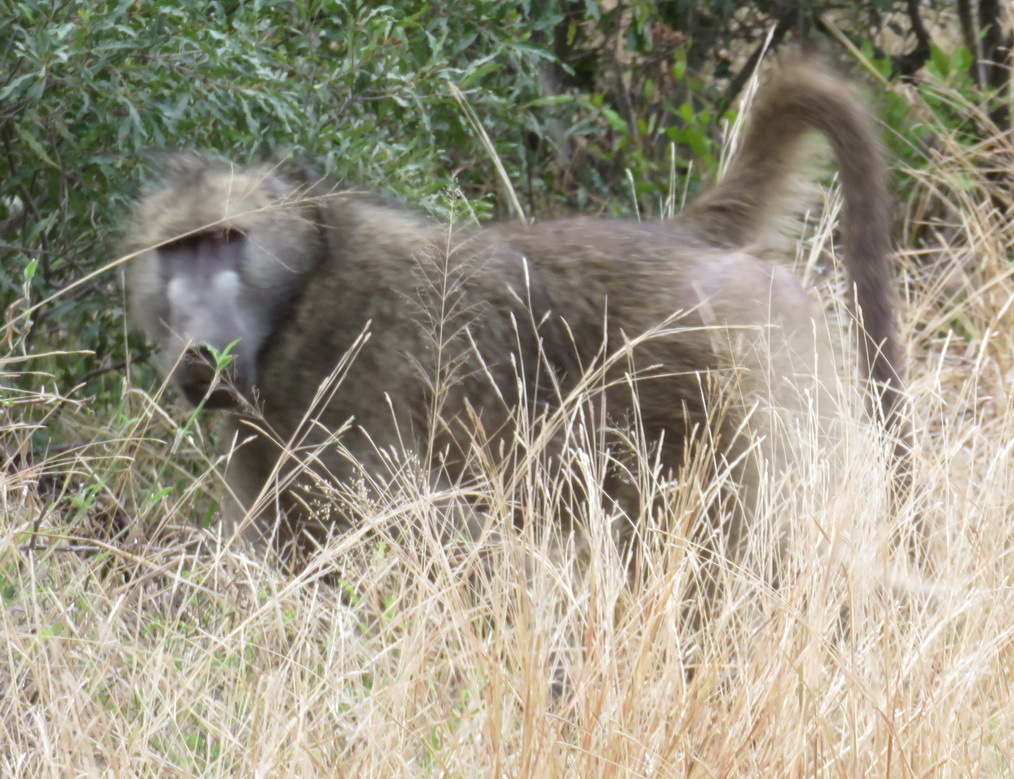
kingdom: Animalia
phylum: Chordata
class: Mammalia
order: Primates
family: Cercopithecidae
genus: Papio
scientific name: Papio ursinus
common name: Chacma baboon
